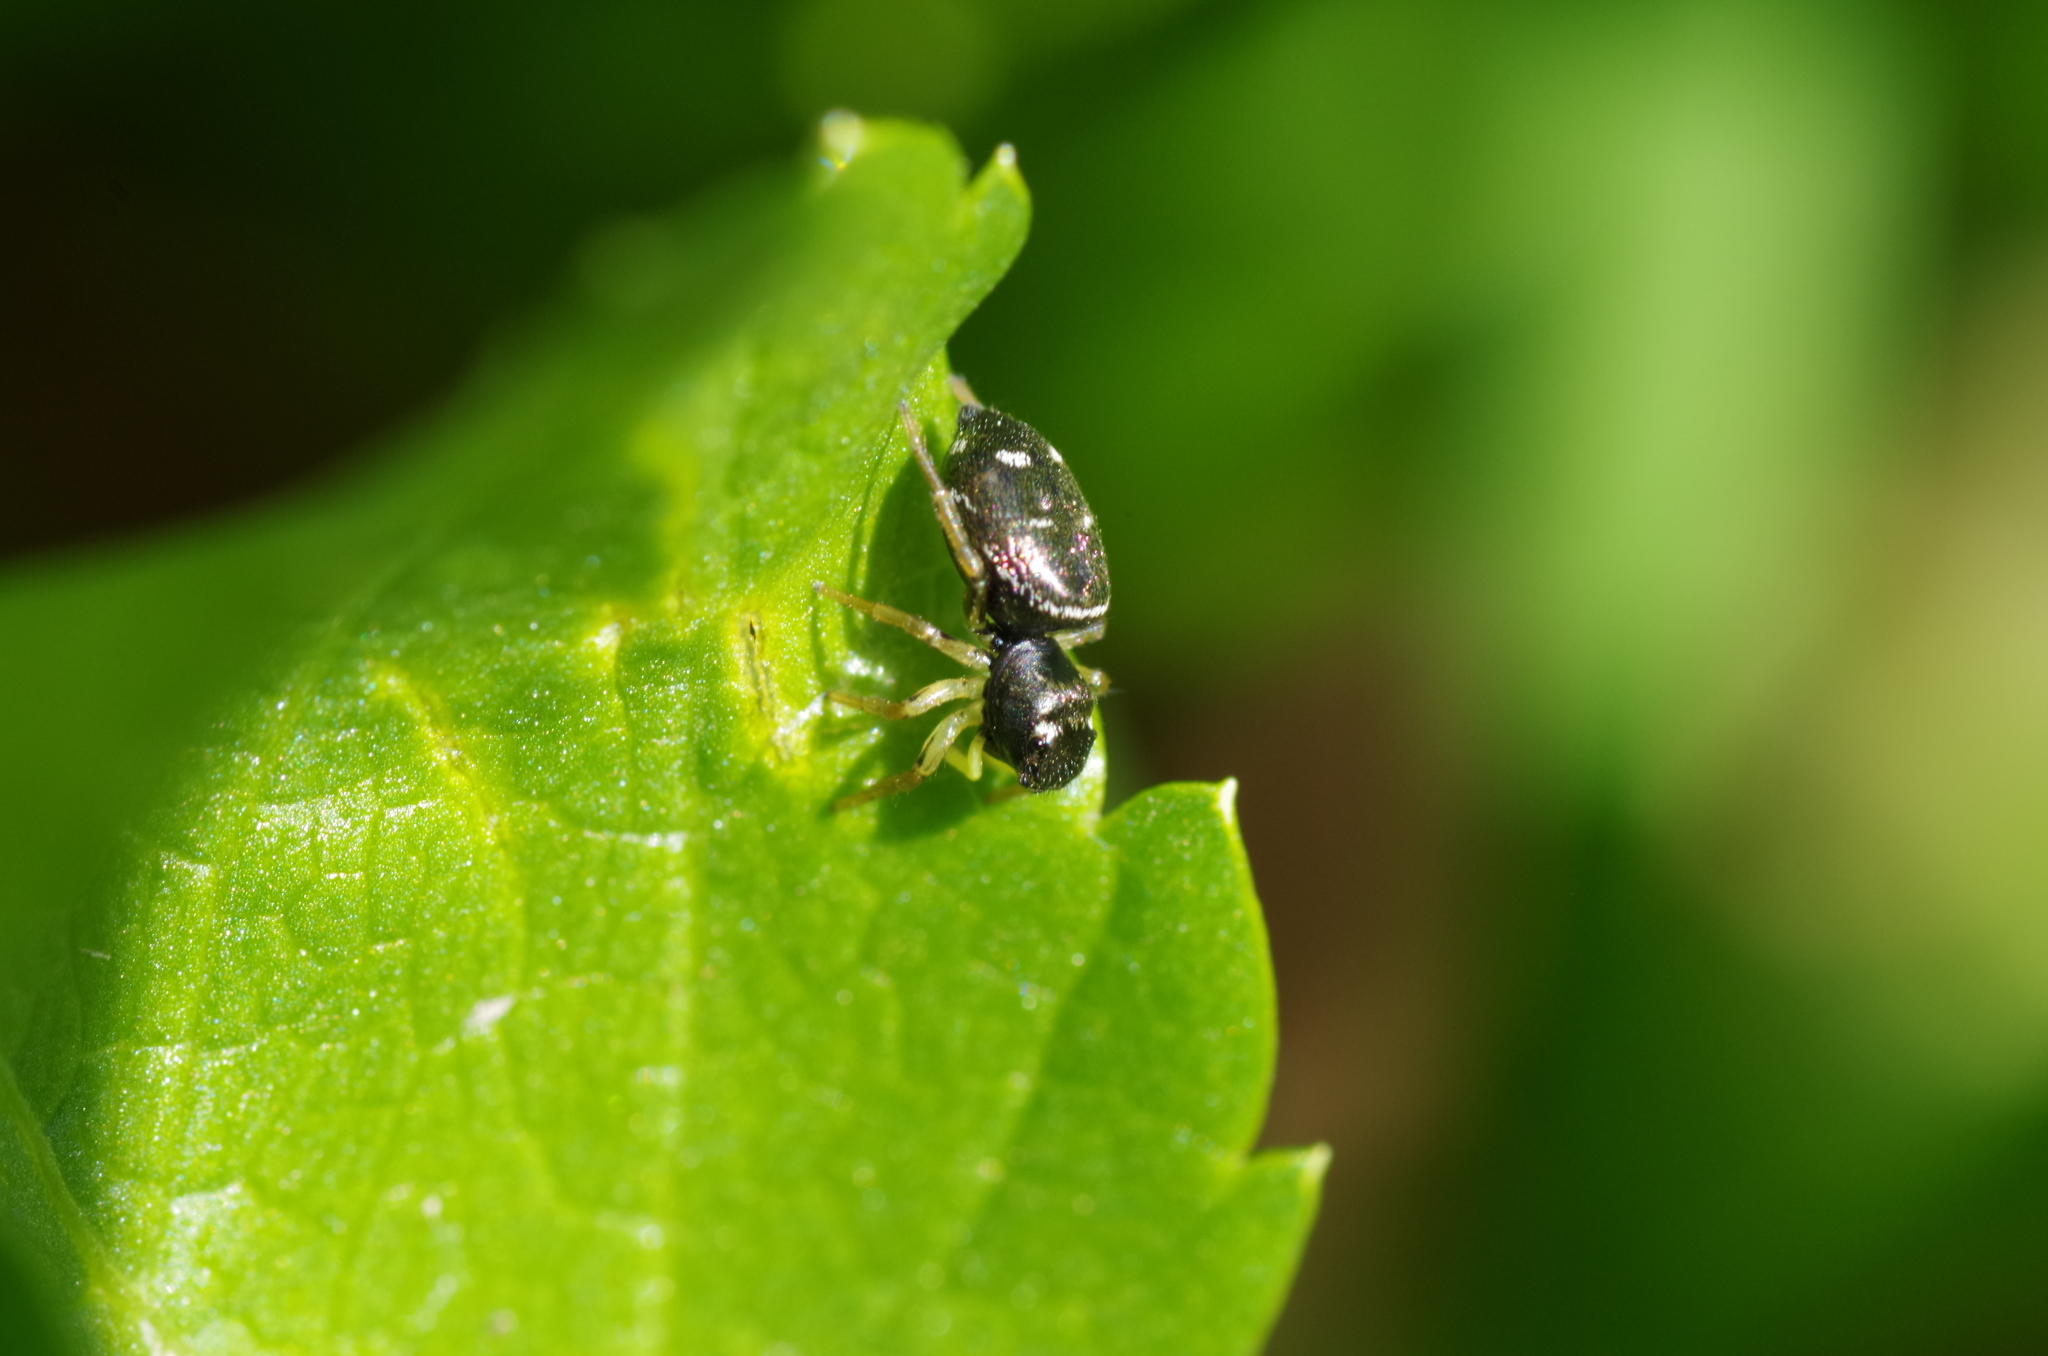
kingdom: Animalia
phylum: Arthropoda
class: Arachnida
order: Araneae
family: Salticidae
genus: Heliophanus
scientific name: Heliophanus cupreus
